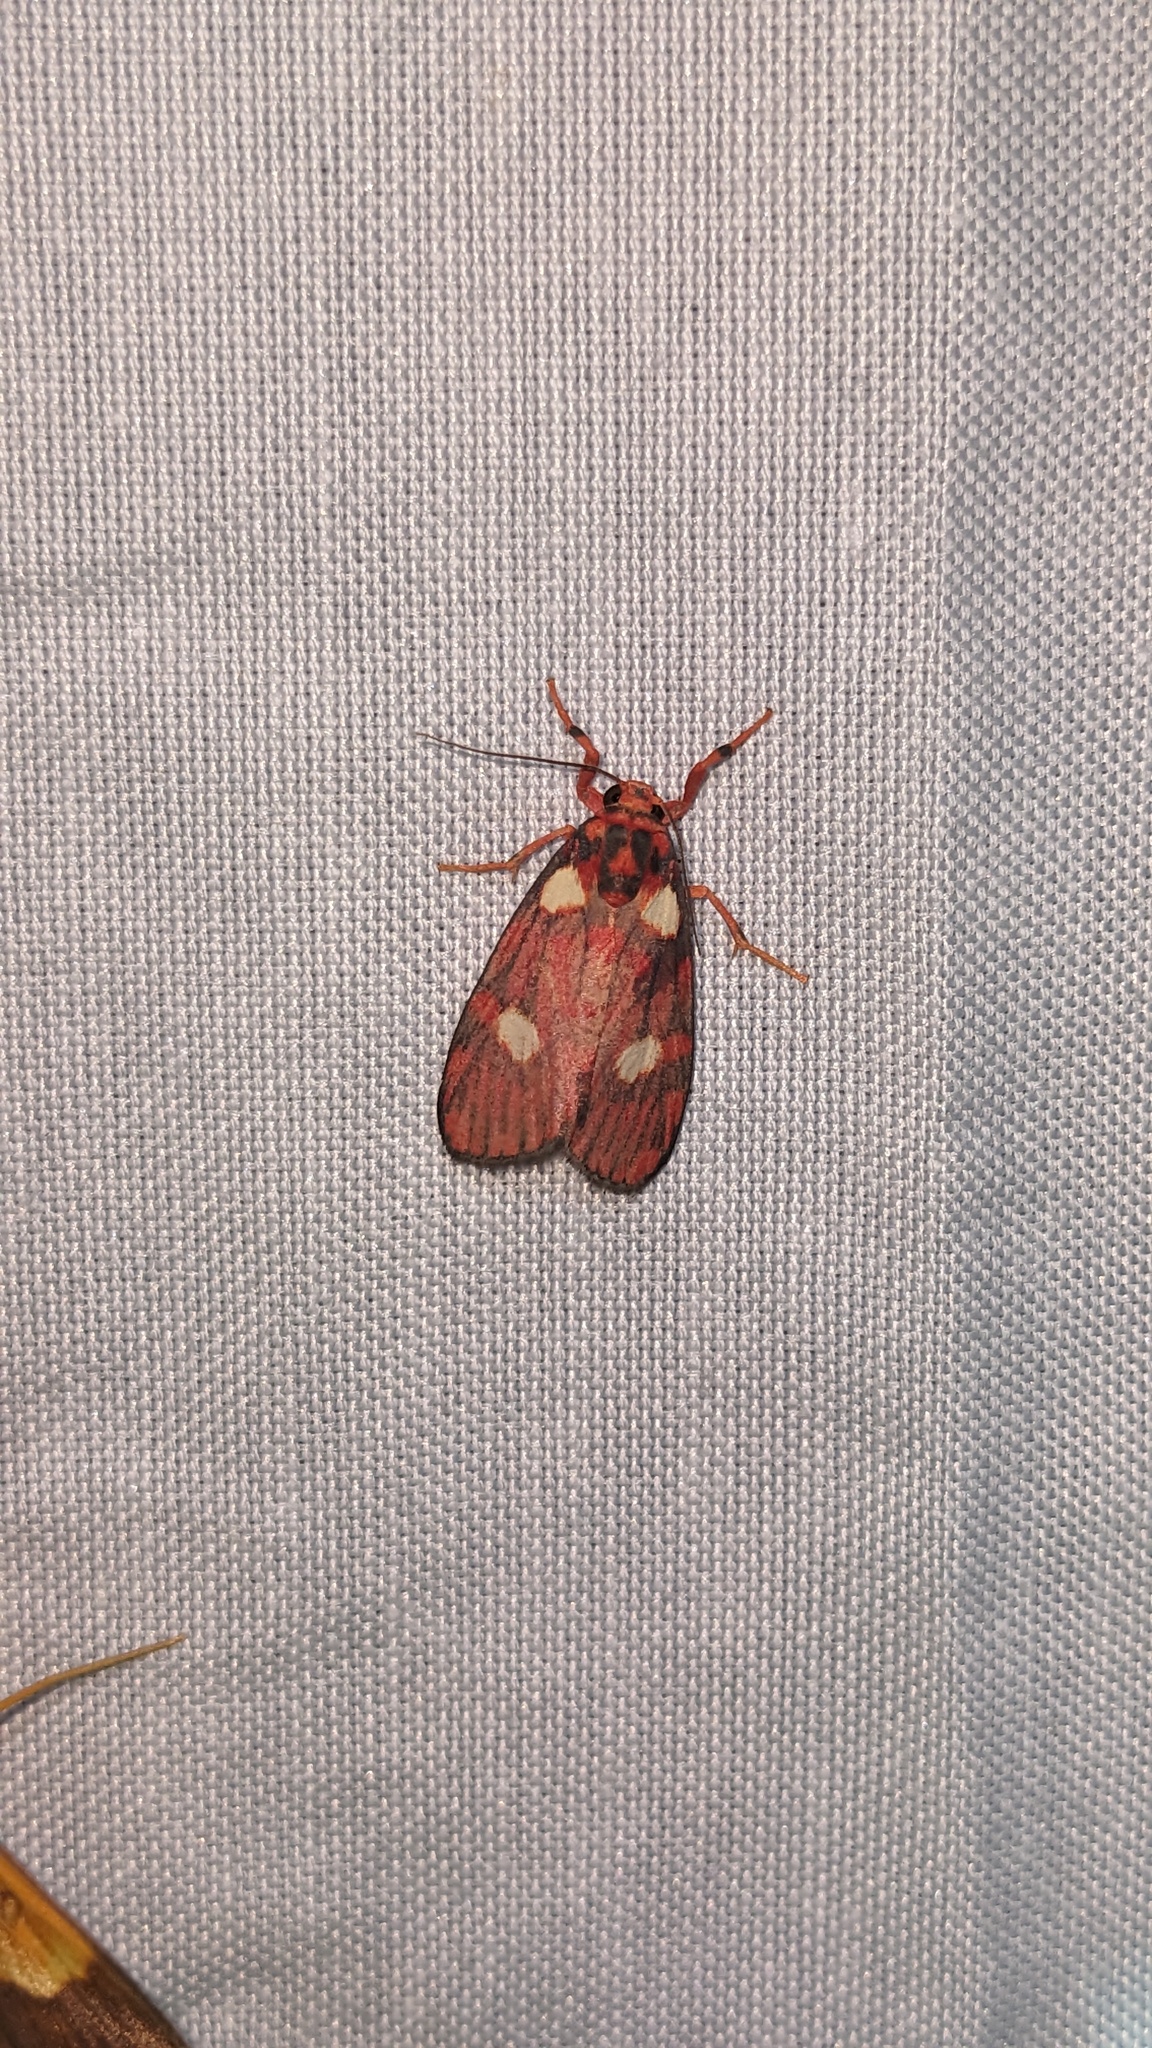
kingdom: Animalia
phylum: Arthropoda
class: Insecta
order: Lepidoptera
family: Erebidae
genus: Cyme
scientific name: Cyme phryctopa
